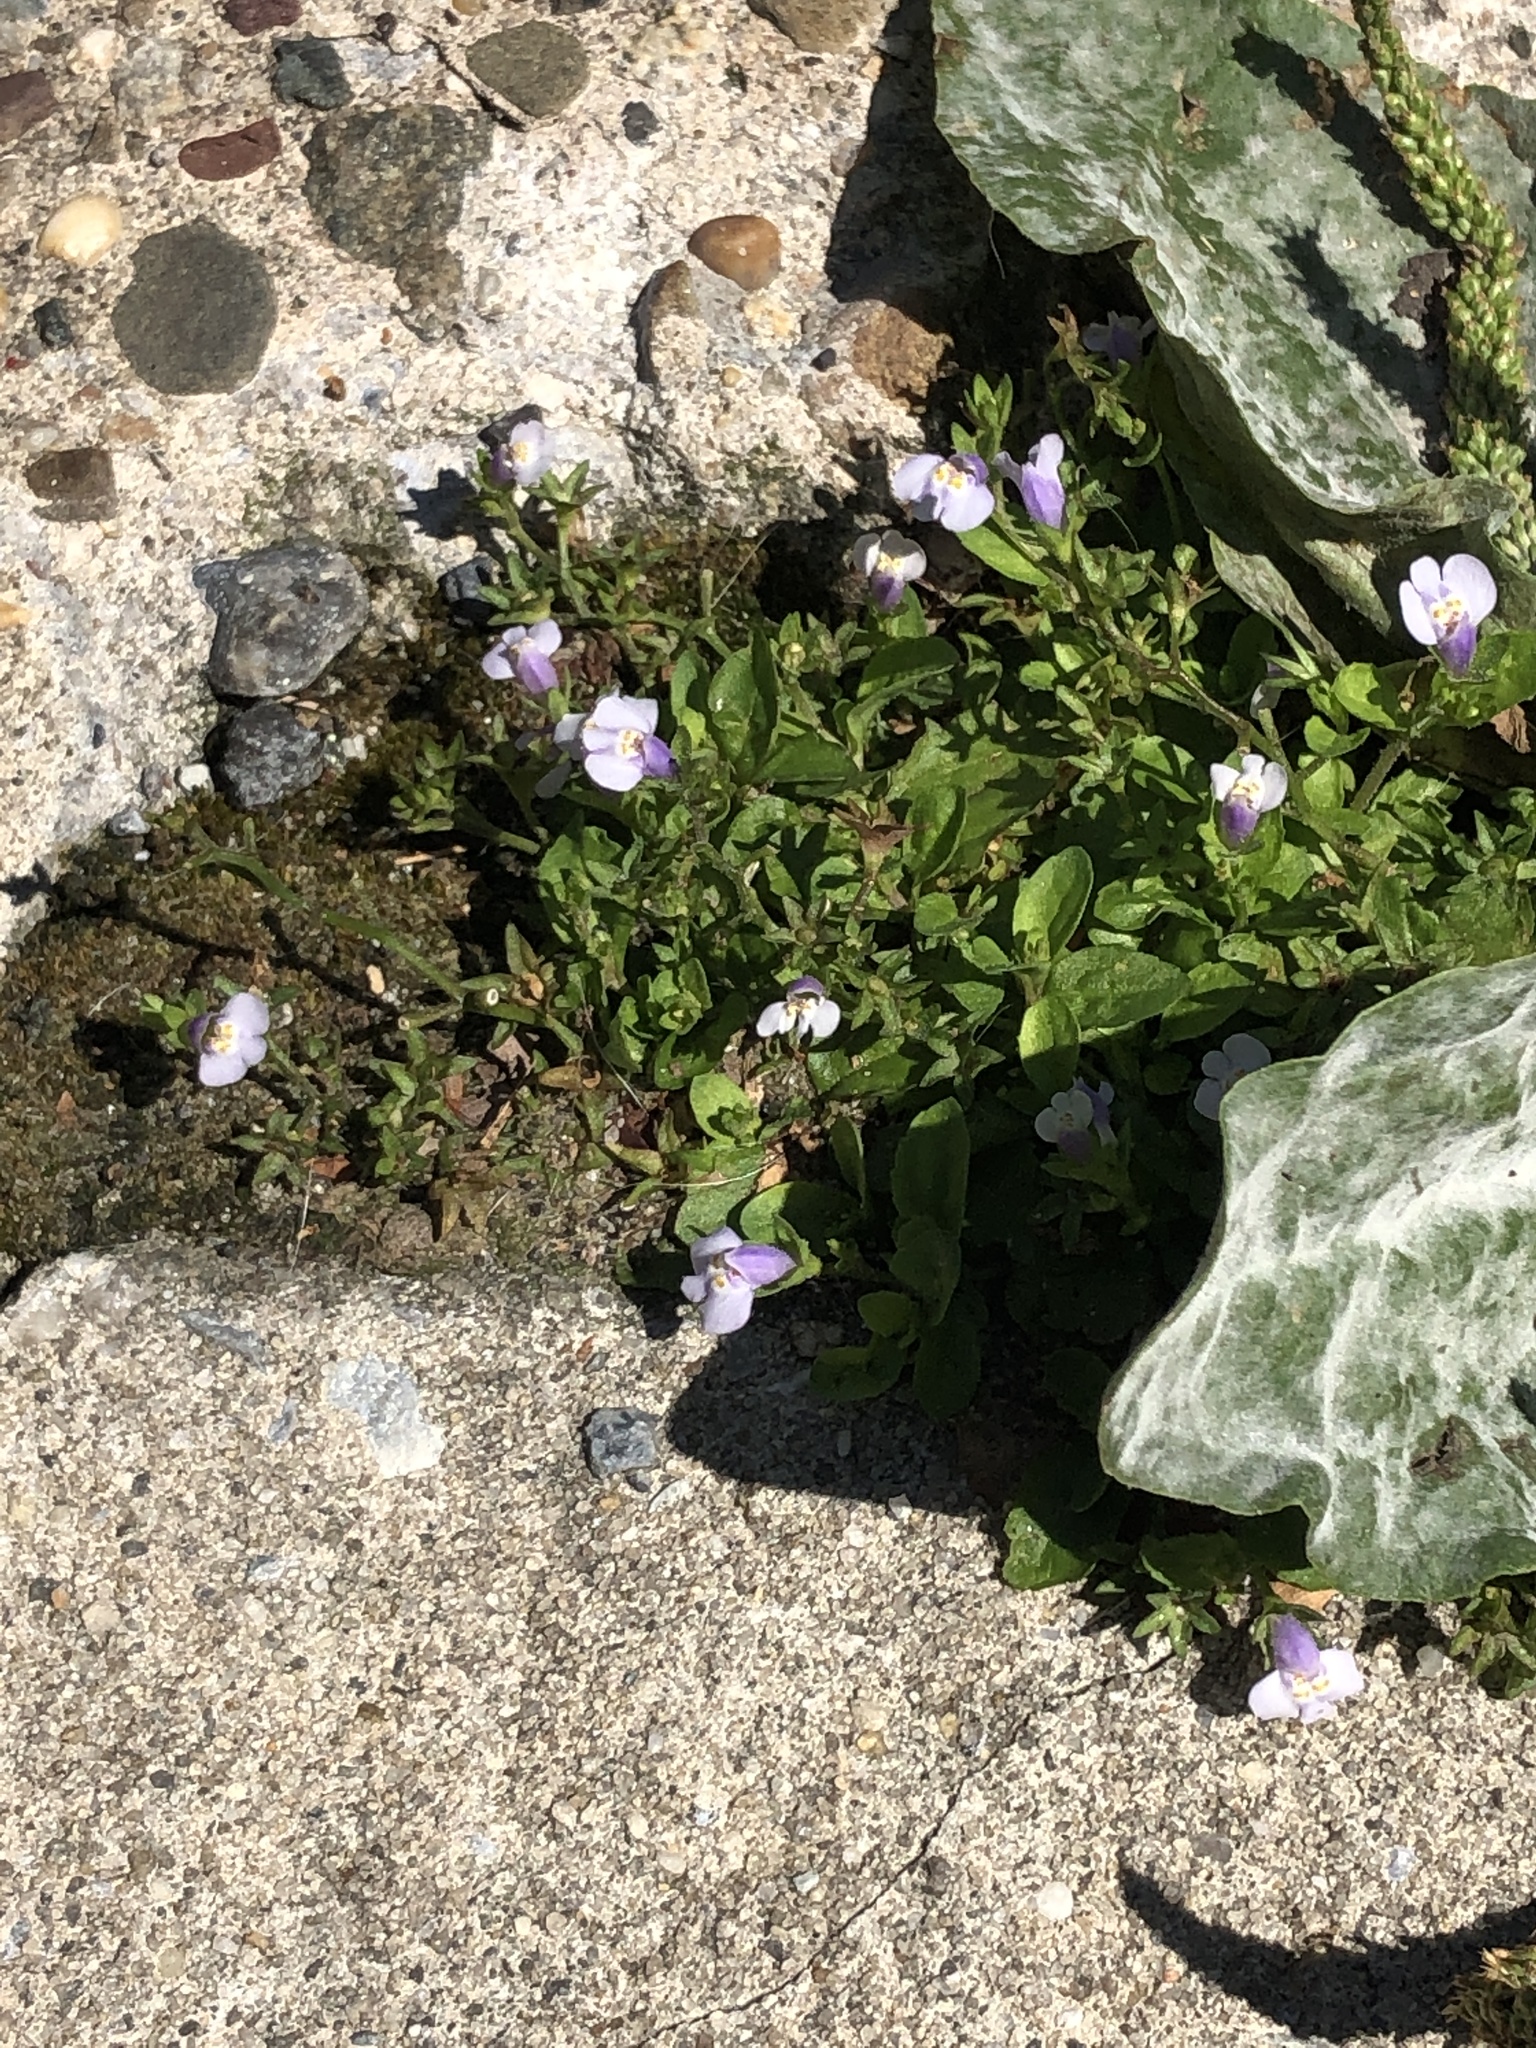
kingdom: Plantae
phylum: Tracheophyta
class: Magnoliopsida
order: Lamiales
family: Mazaceae
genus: Mazus
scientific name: Mazus pumilus
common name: Japanese mazus
